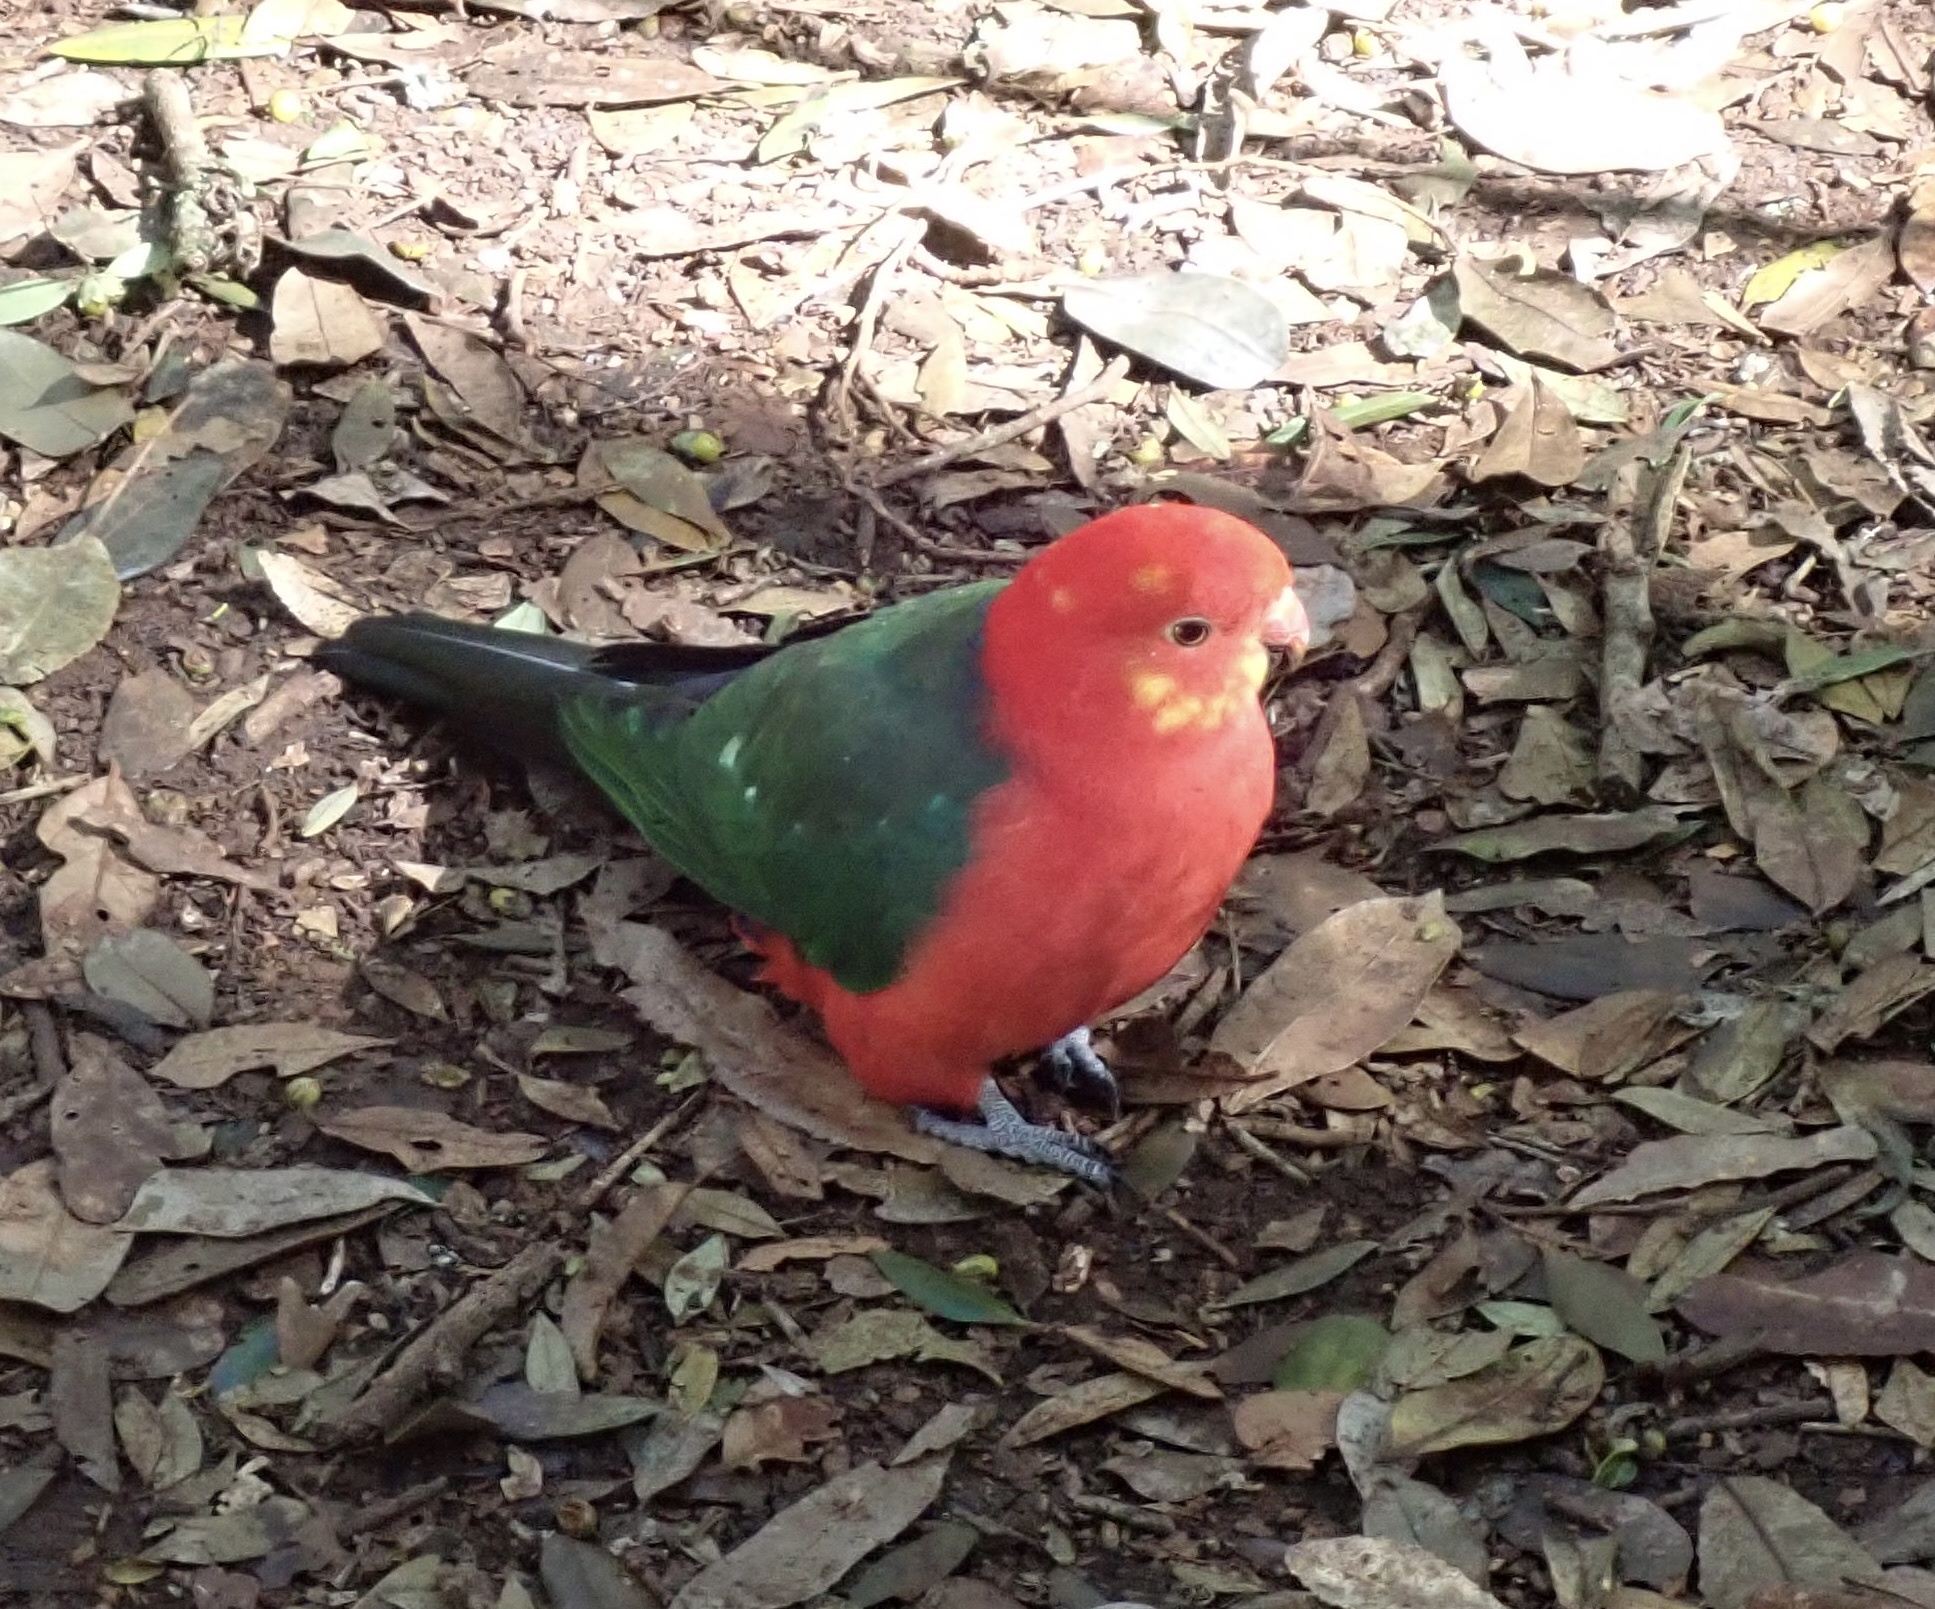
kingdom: Animalia
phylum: Chordata
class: Aves
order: Psittaciformes
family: Psittacidae
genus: Alisterus
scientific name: Alisterus scapularis
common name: Australian king parrot
